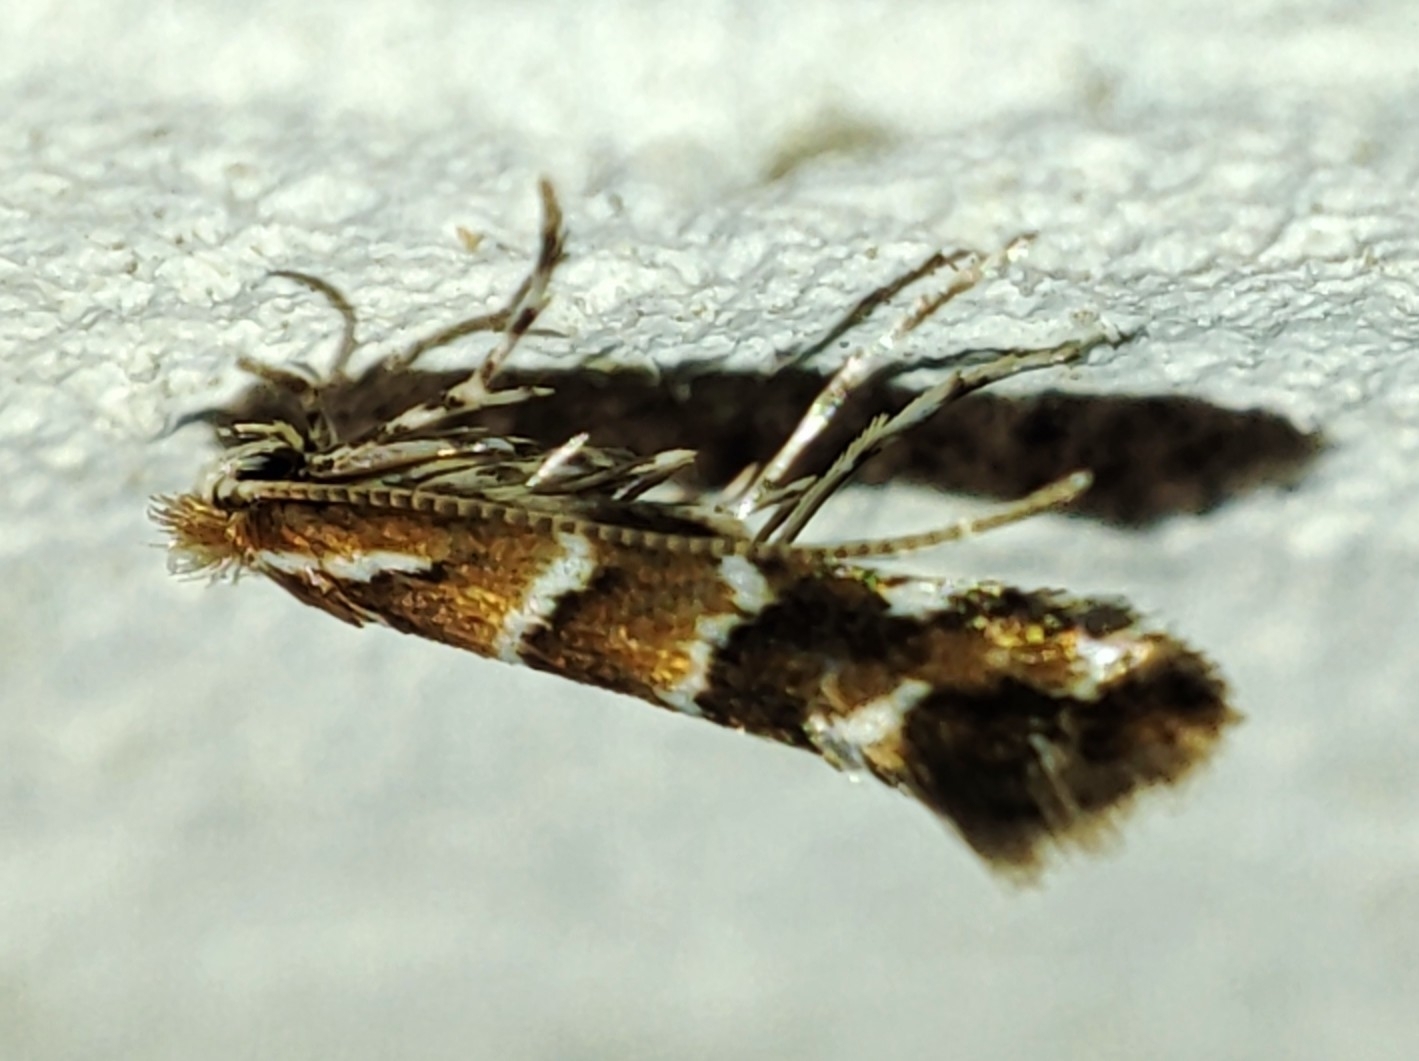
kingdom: Animalia
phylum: Arthropoda
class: Insecta
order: Lepidoptera
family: Gracillariidae
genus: Cameraria
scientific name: Cameraria ohridella
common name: Horse-chestnut leaf-miner
